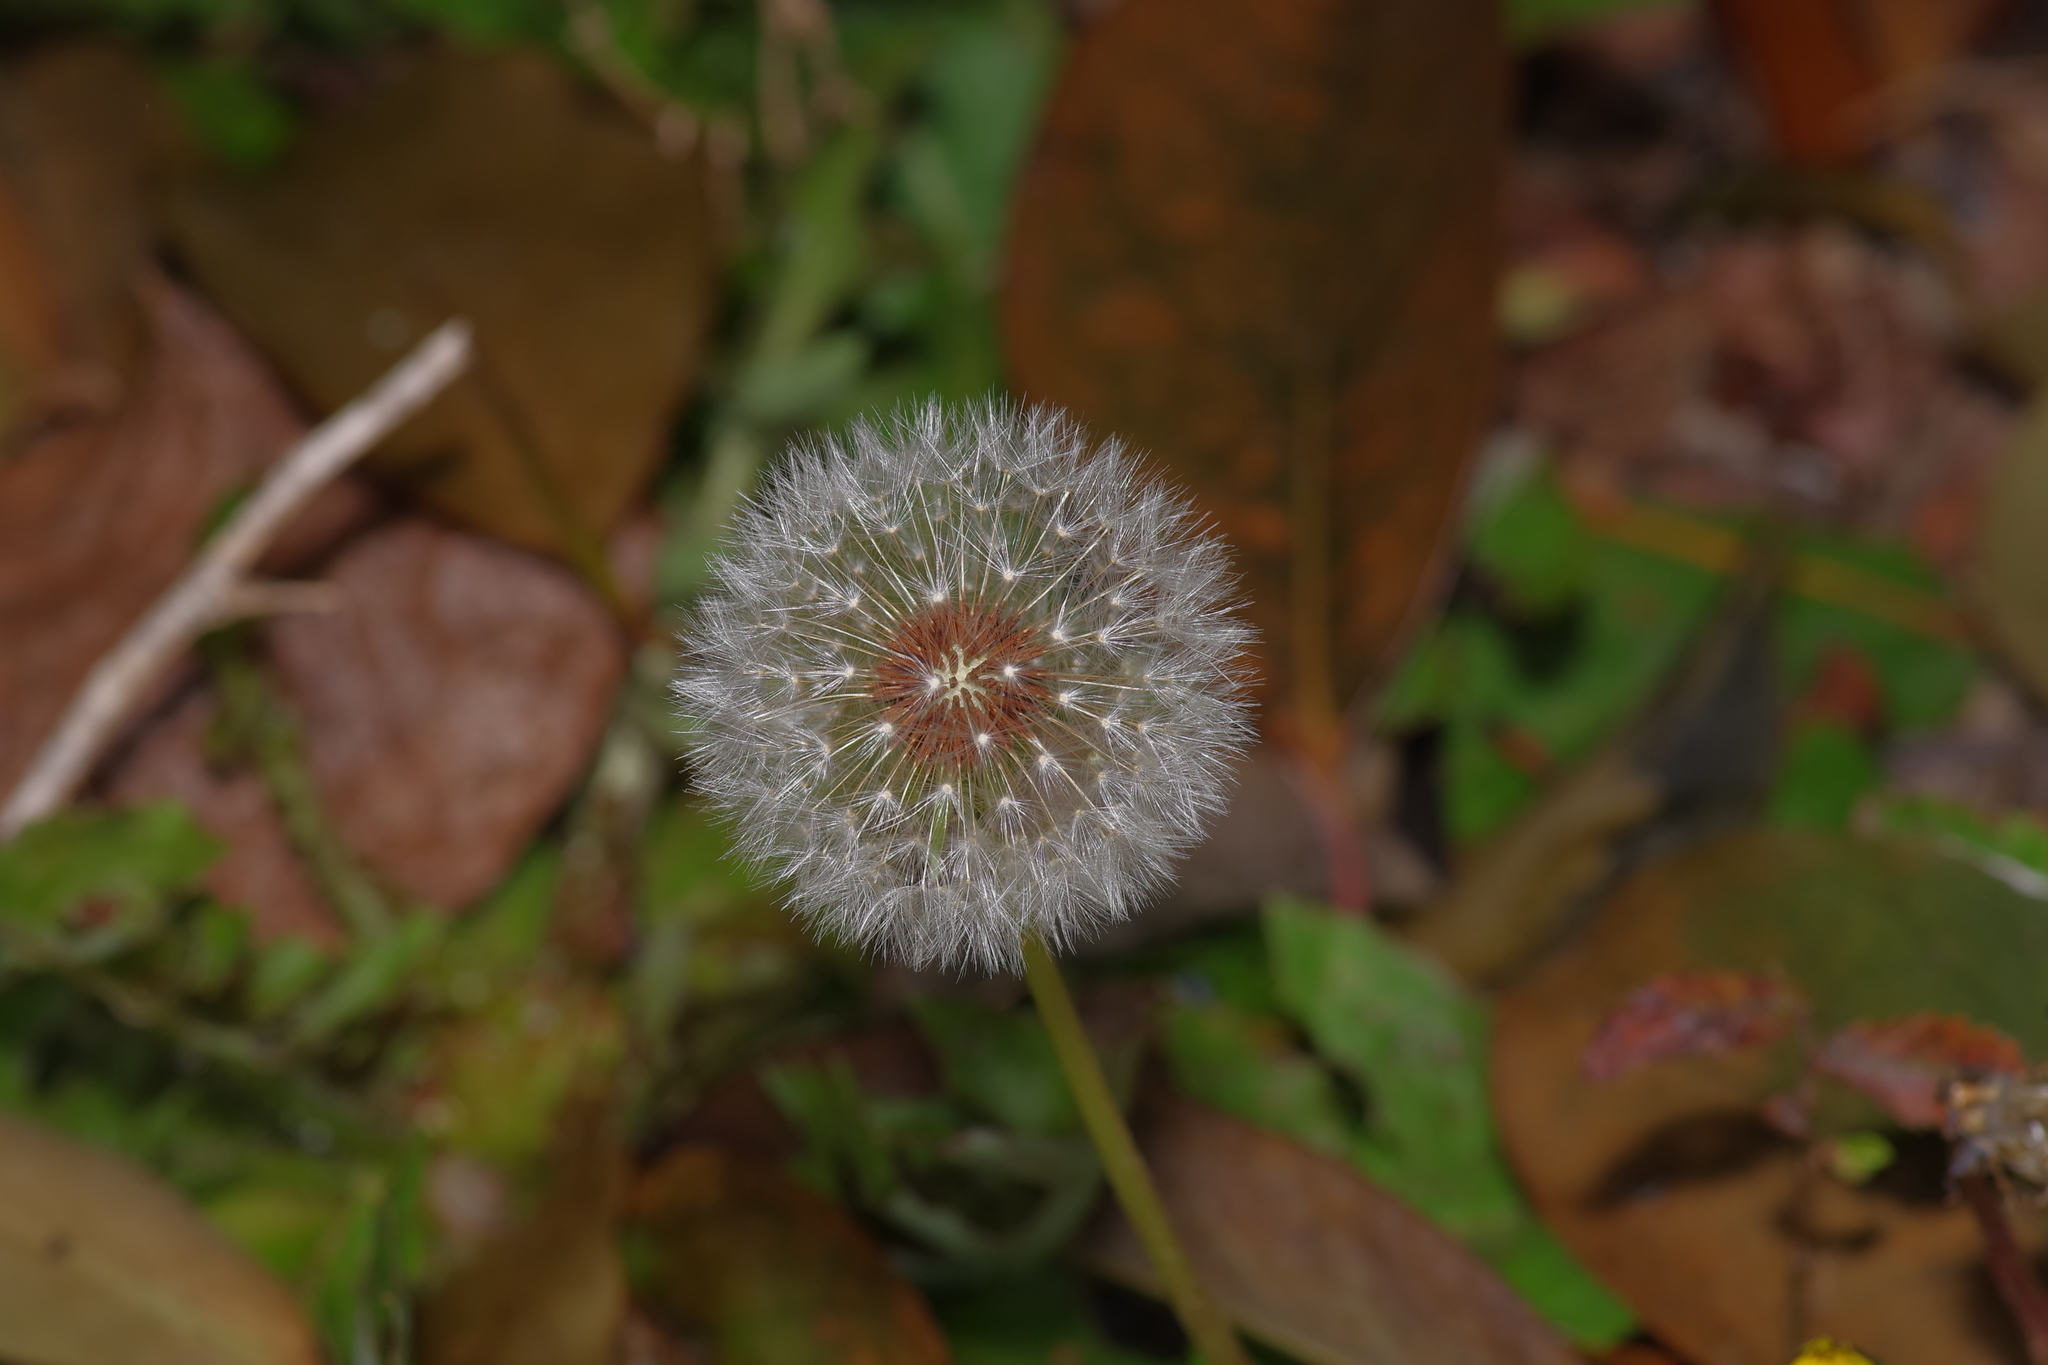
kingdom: Plantae
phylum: Tracheophyta
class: Magnoliopsida
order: Asterales
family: Asteraceae
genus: Taraxacum
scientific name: Taraxacum erythrospermum
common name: Rock dandelion
